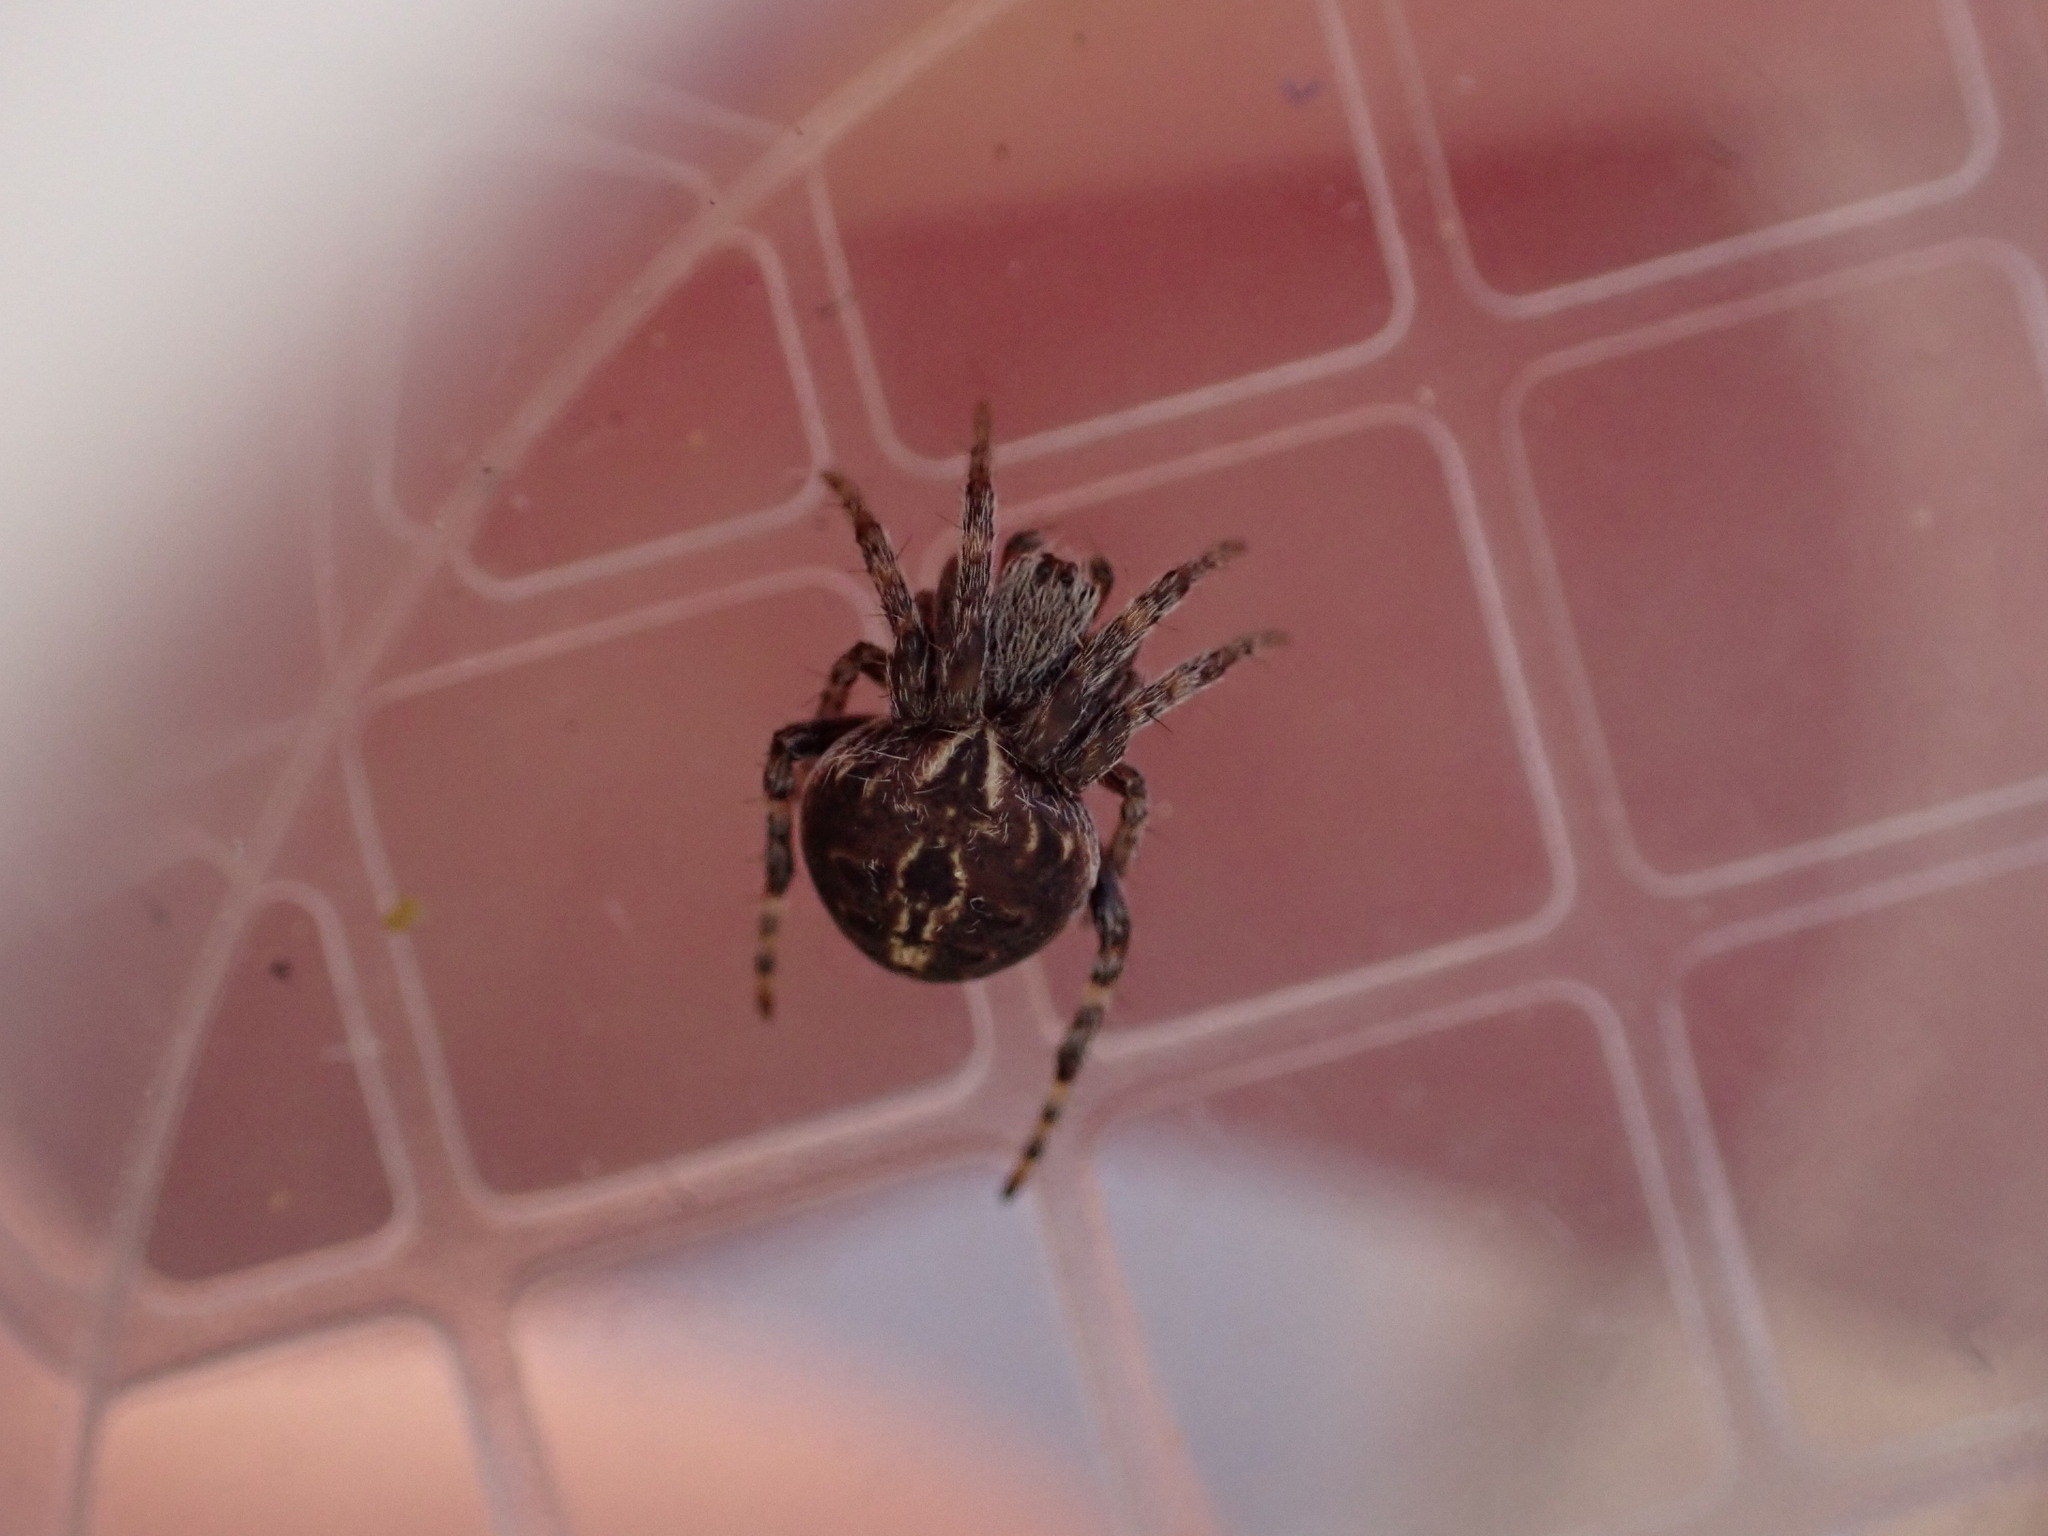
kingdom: Animalia
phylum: Arthropoda
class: Arachnida
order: Araneae
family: Araneidae
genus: Agalenatea
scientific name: Agalenatea redii
